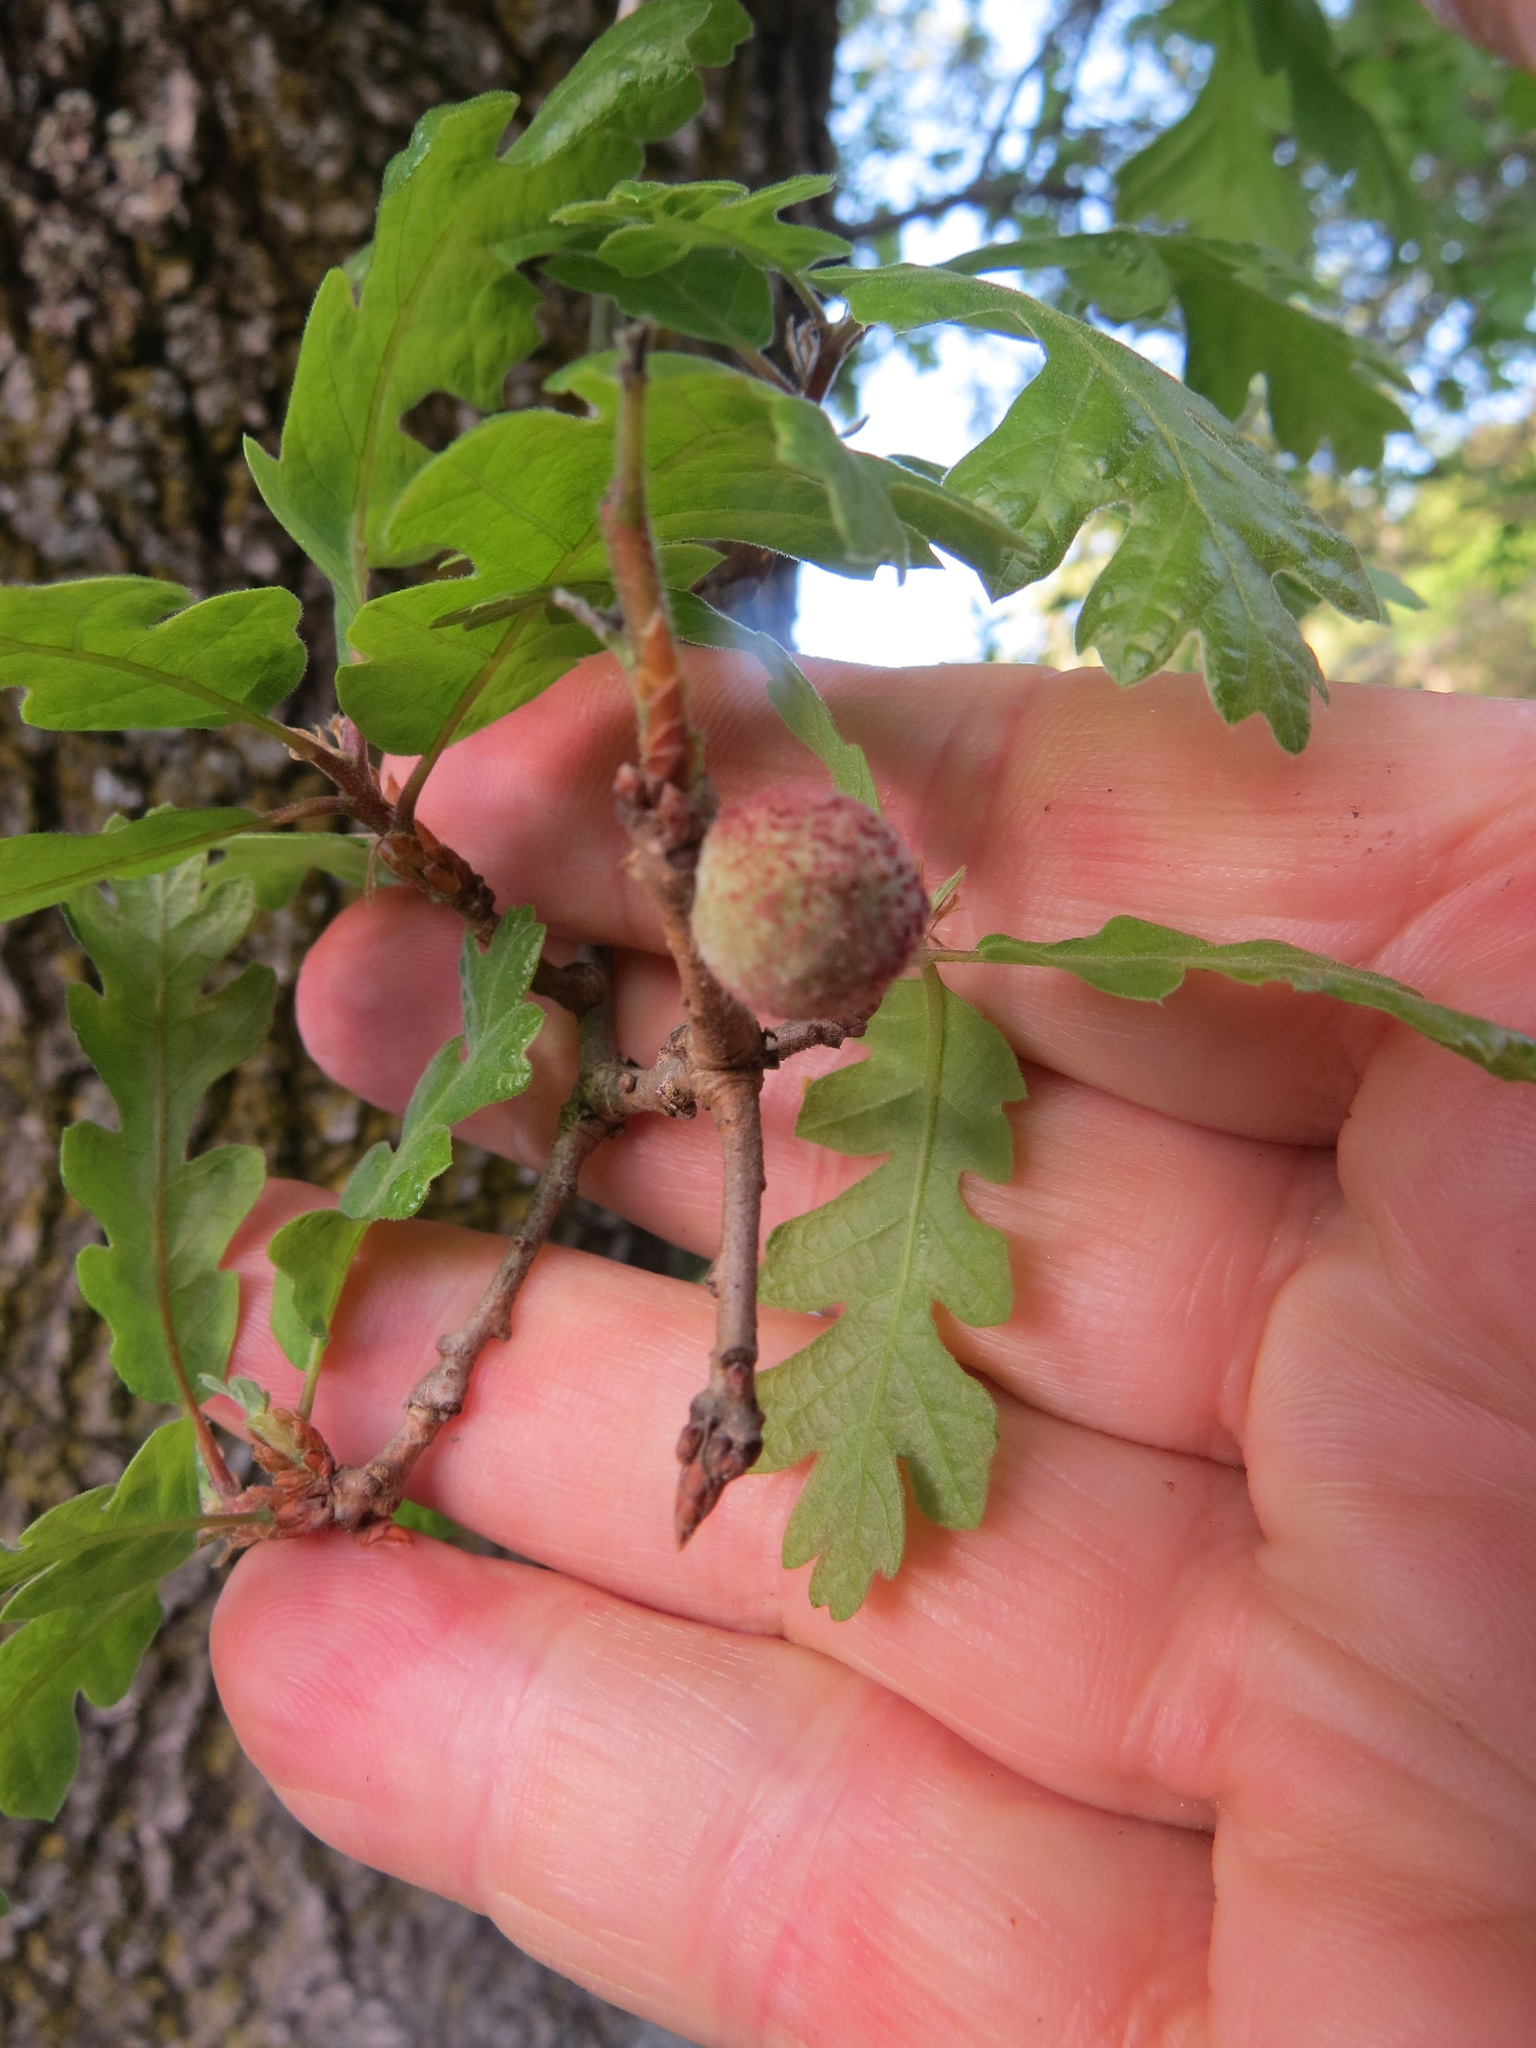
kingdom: Animalia
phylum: Arthropoda
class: Insecta
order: Hymenoptera
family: Cynipidae
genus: Burnettweldia
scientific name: Burnettweldia
